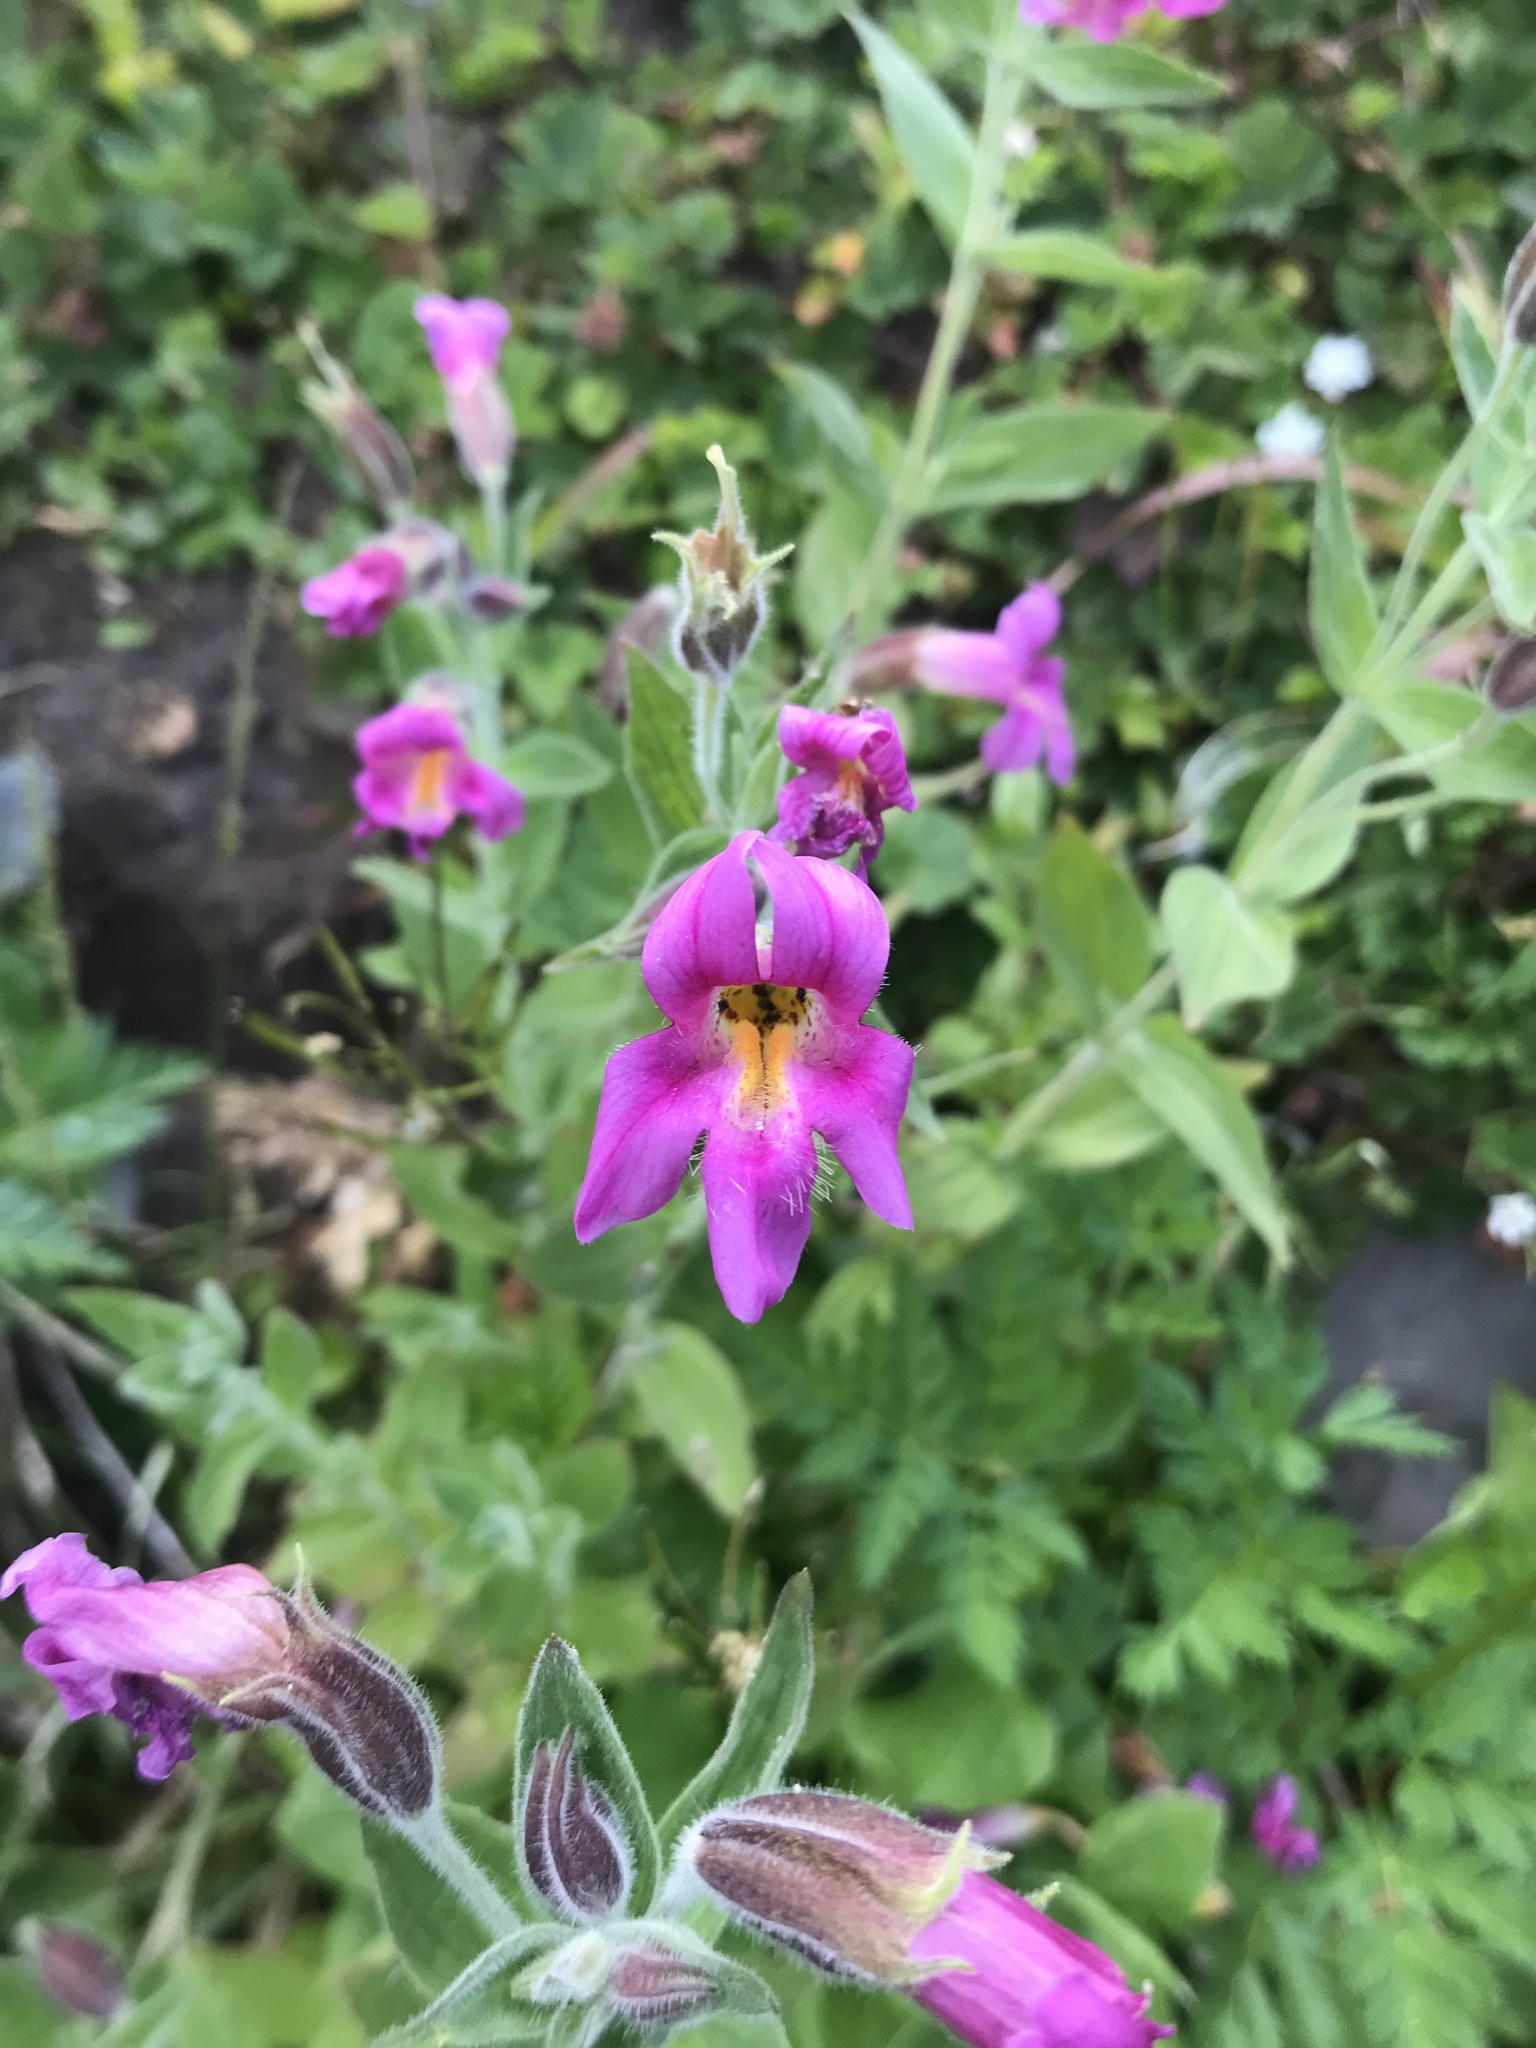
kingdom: Plantae
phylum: Tracheophyta
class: Magnoliopsida
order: Lamiales
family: Phrymaceae
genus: Erythranthe
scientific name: Erythranthe lewisii
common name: Lewis's monkey-flower
